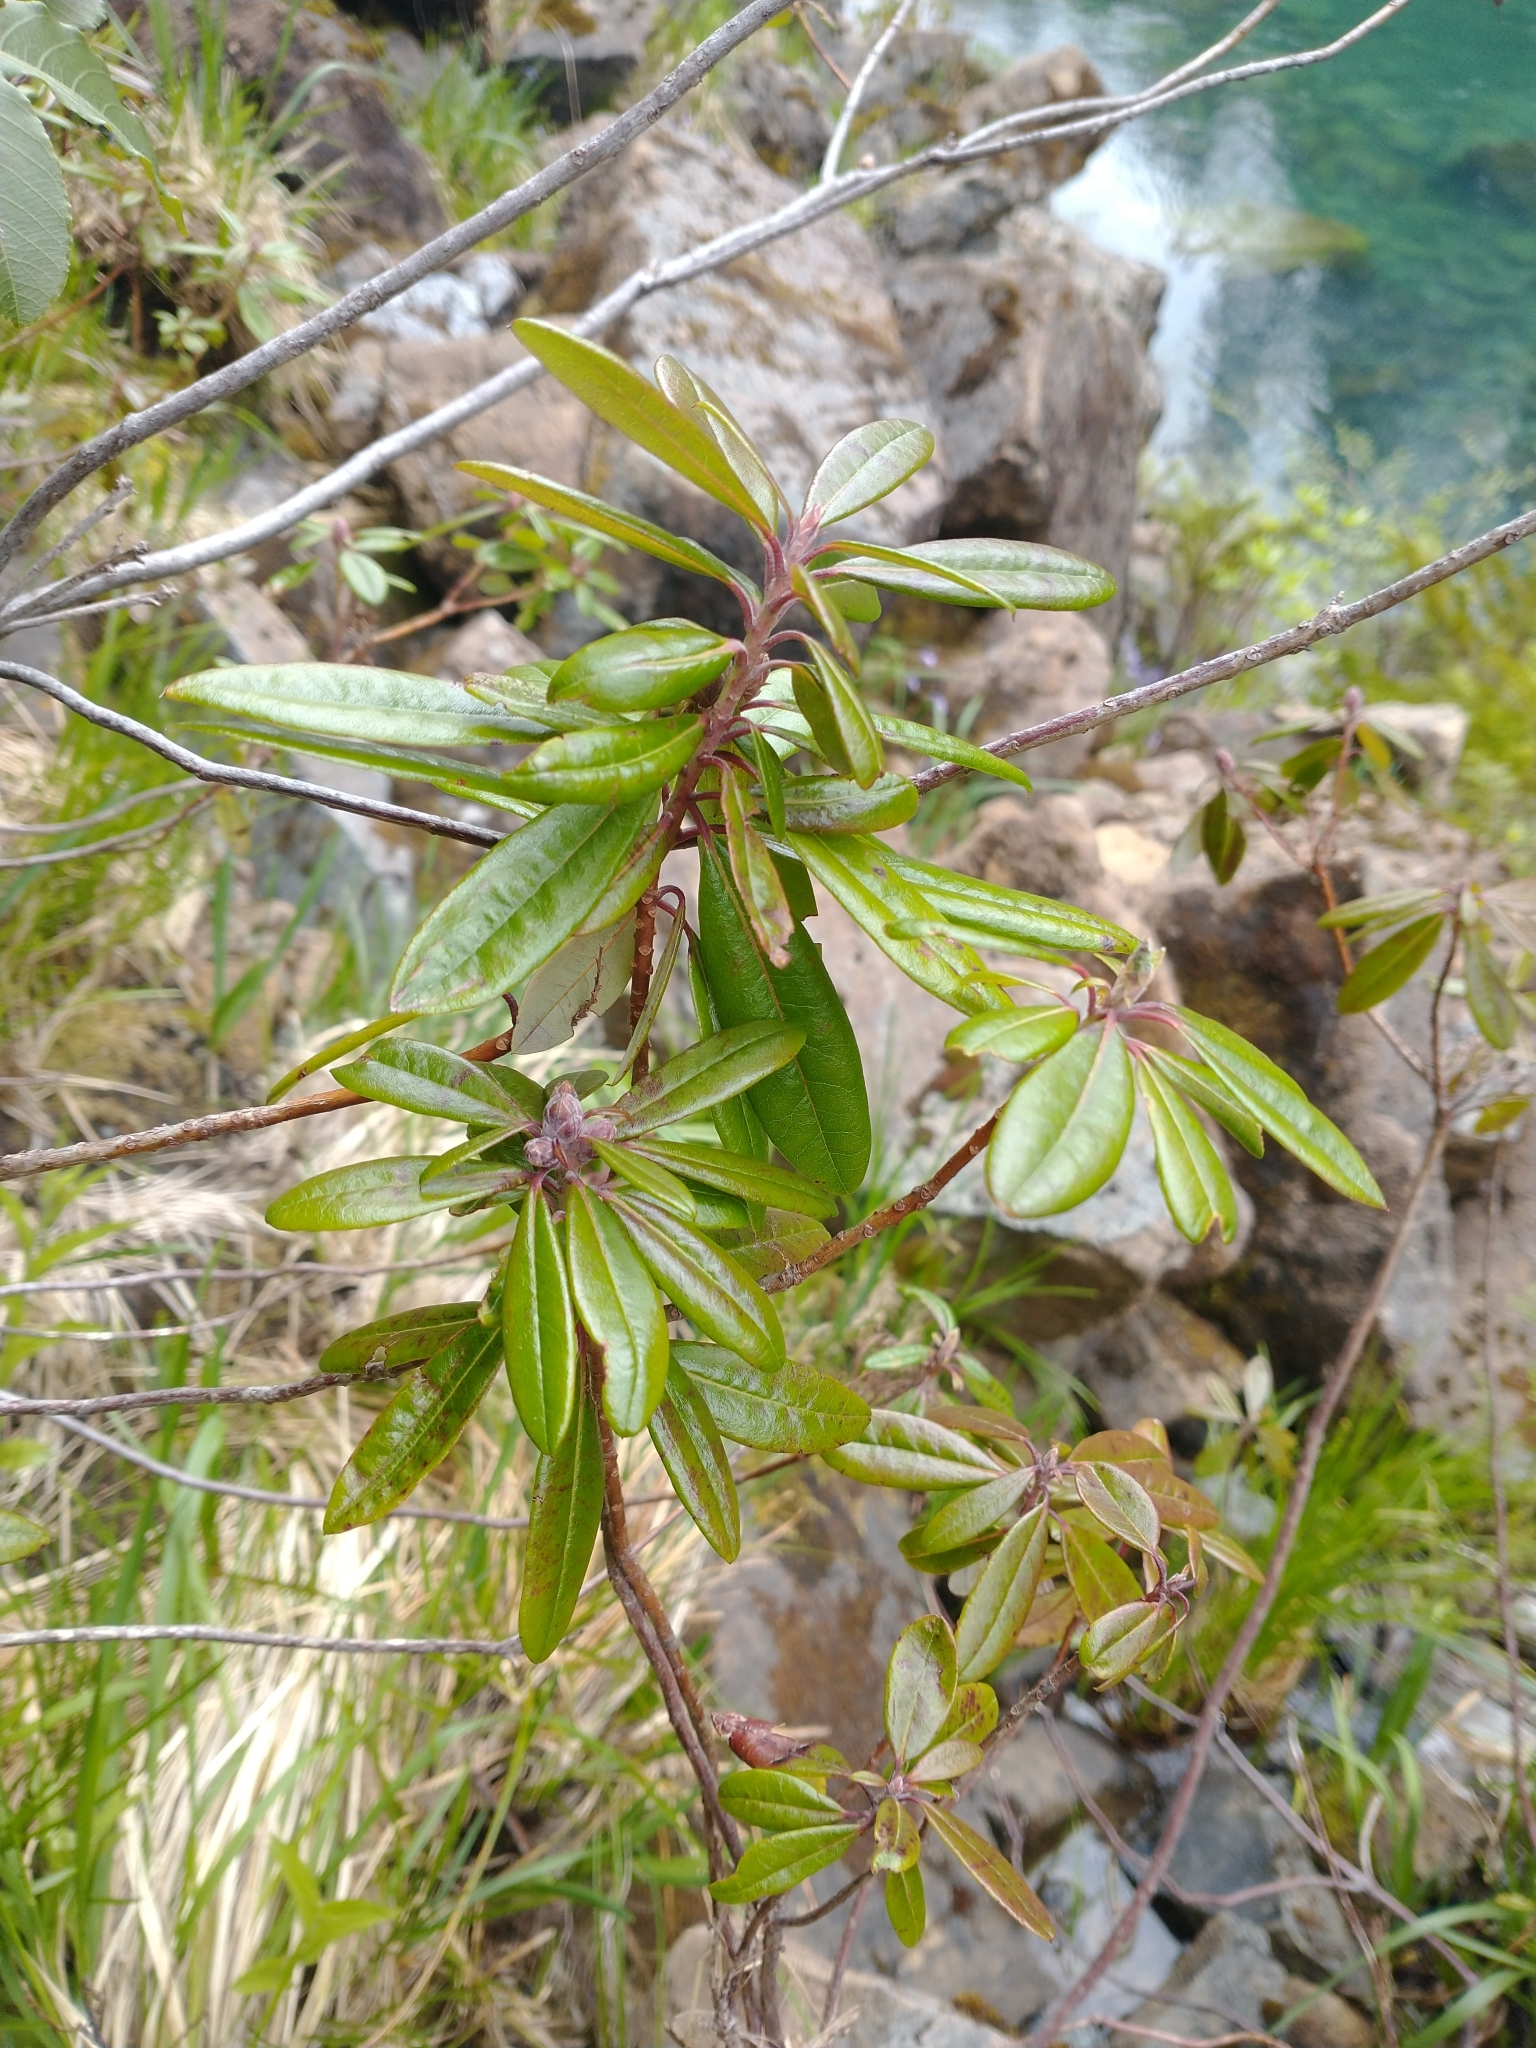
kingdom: Plantae
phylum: Tracheophyta
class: Magnoliopsida
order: Ericales
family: Ericaceae
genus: Rhododendron
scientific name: Rhododendron columbianum
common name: Western labrador tea
